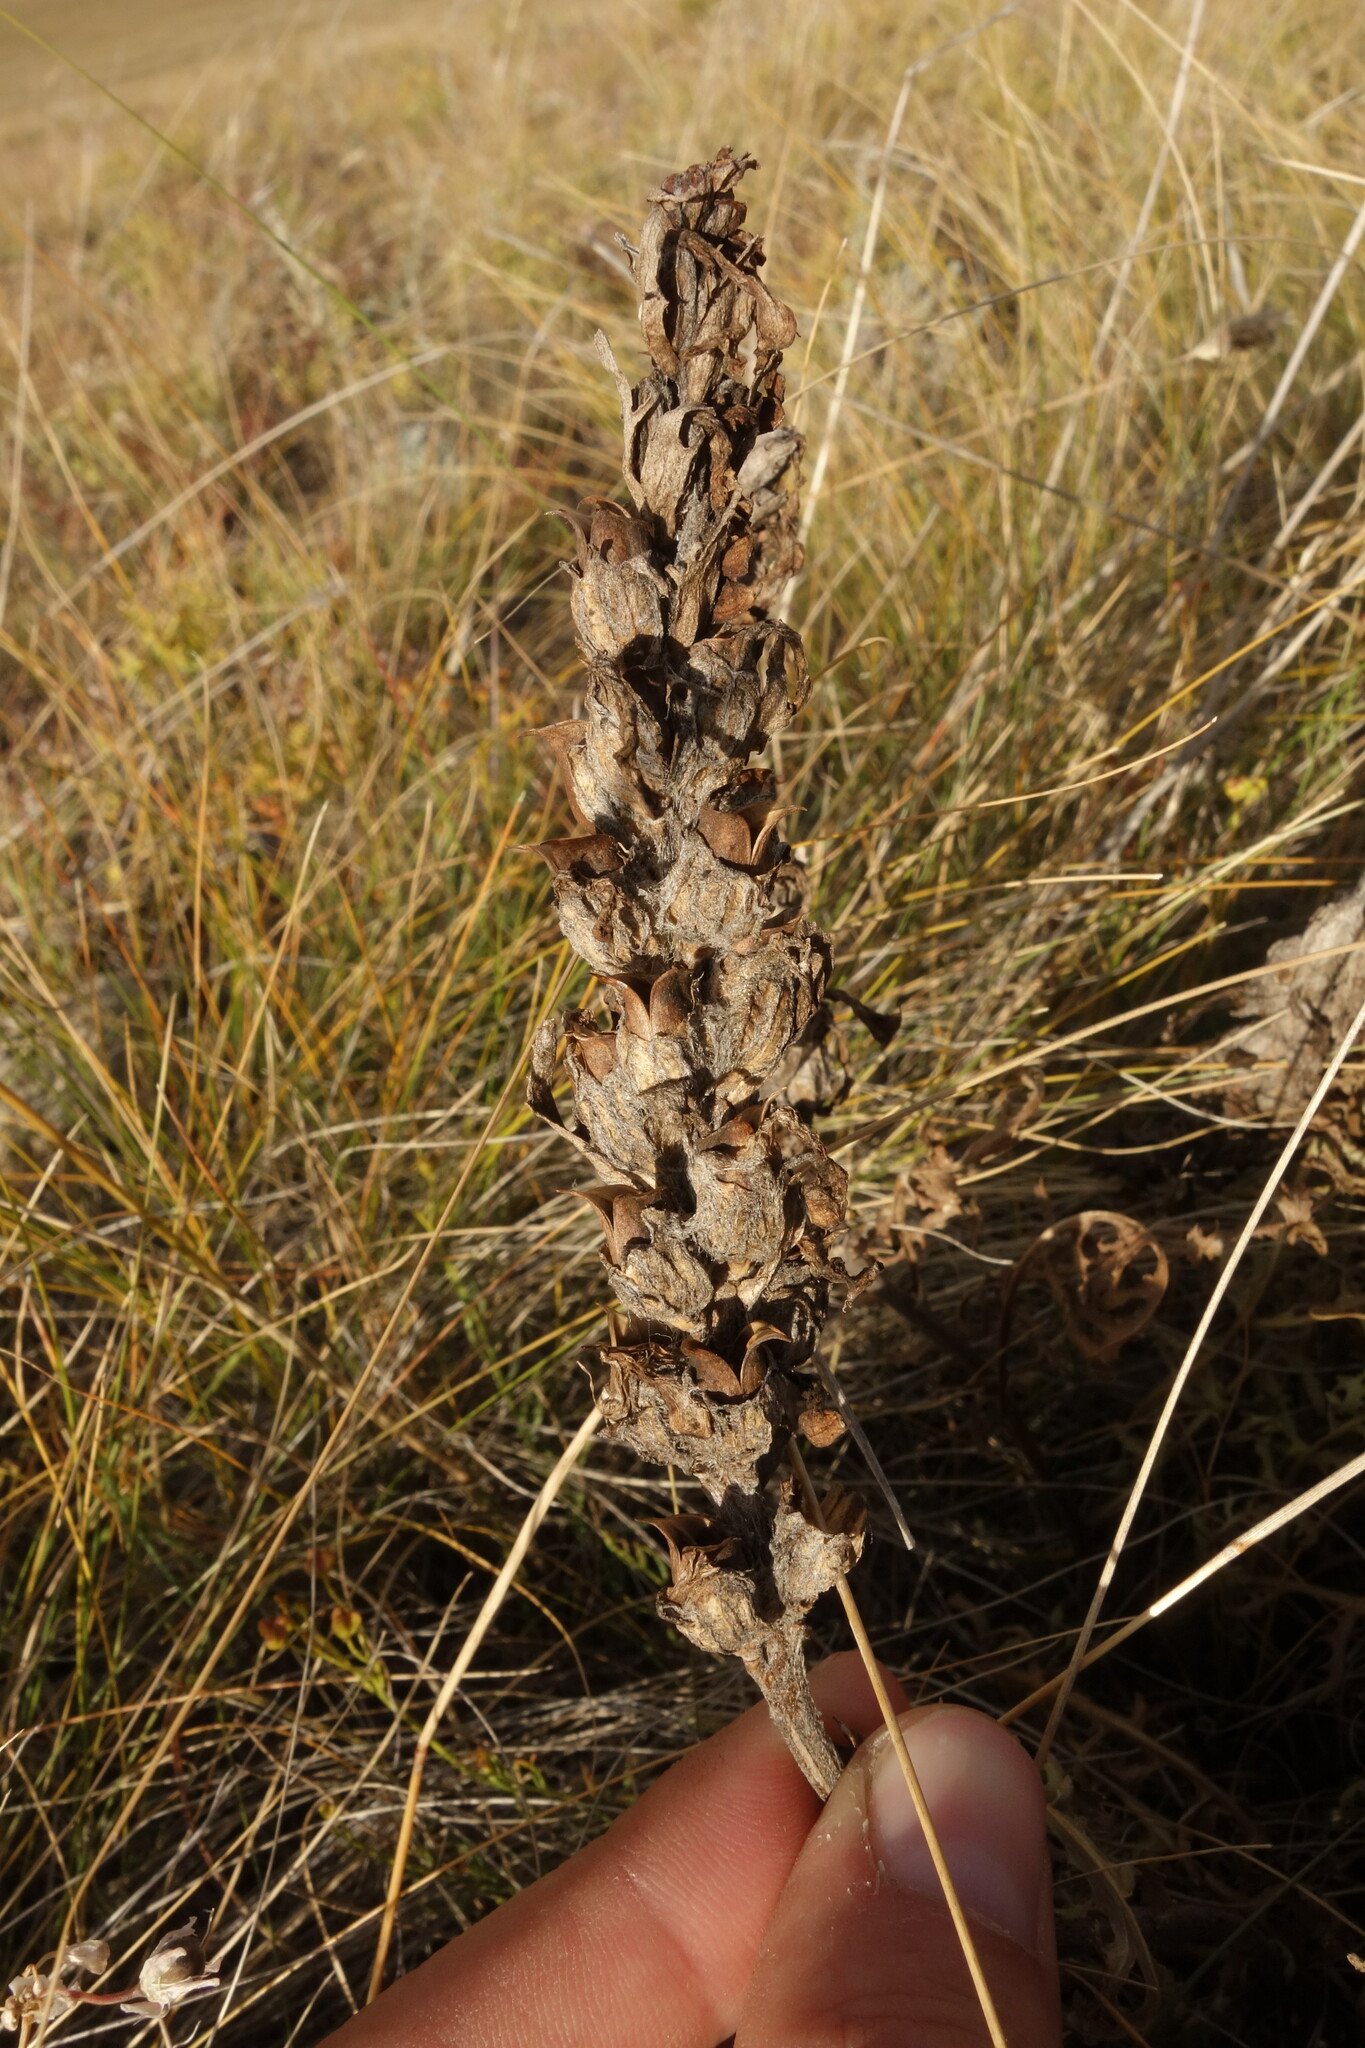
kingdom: Plantae
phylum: Tracheophyta
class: Magnoliopsida
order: Lamiales
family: Orobanchaceae
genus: Pedicularis
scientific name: Pedicularis flava
